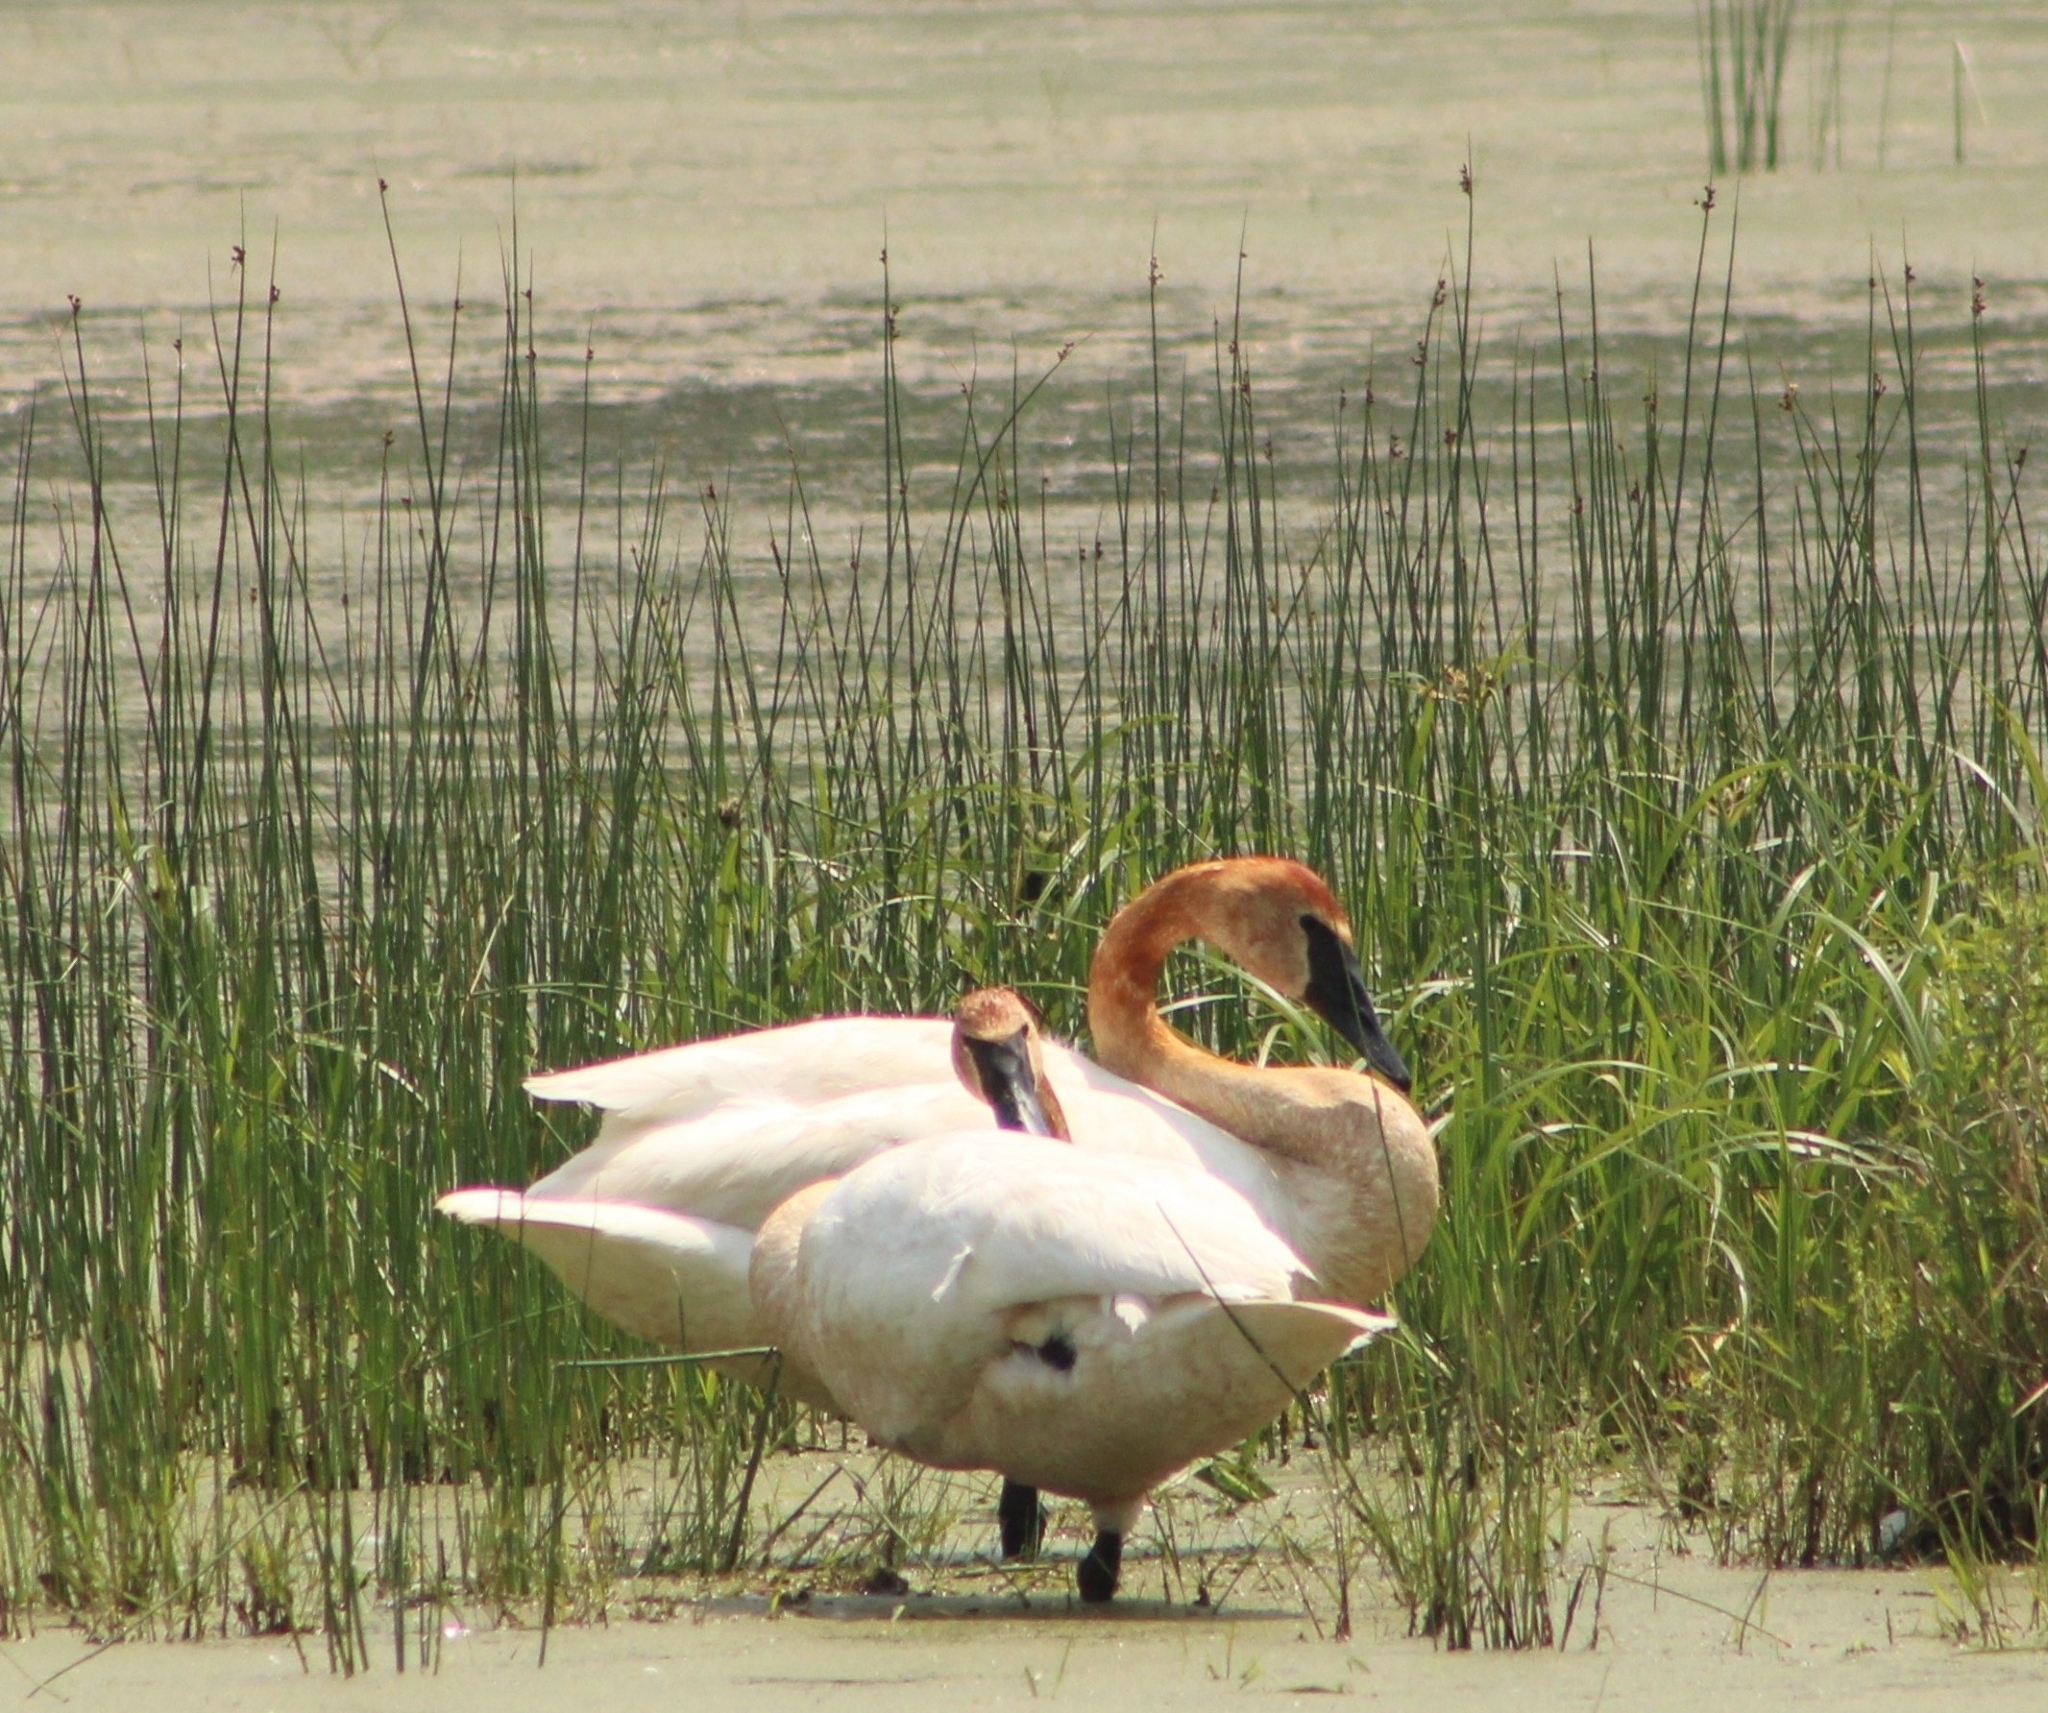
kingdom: Animalia
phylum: Chordata
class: Aves
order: Anseriformes
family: Anatidae
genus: Cygnus
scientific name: Cygnus buccinator
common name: Trumpeter swan
